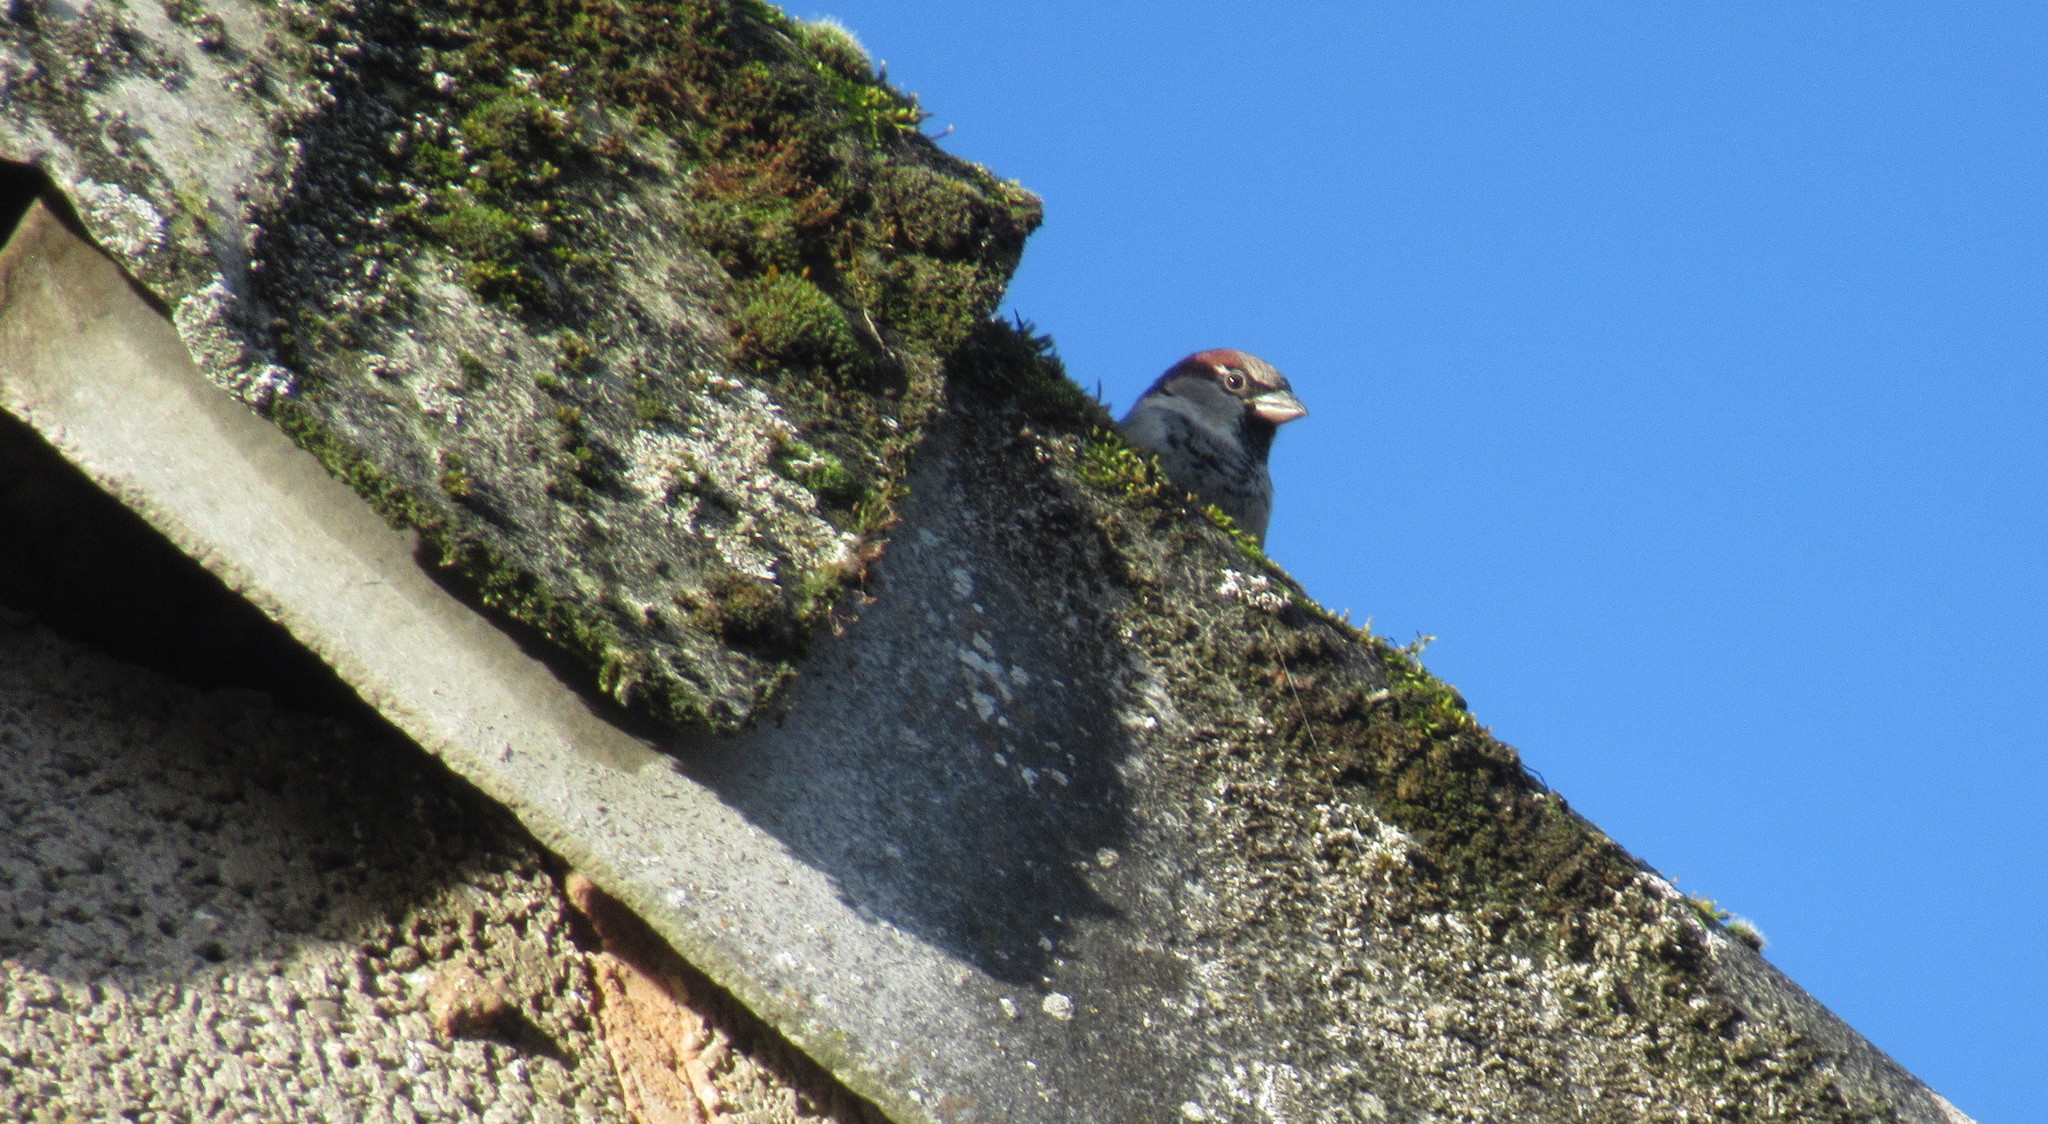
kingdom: Animalia
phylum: Chordata
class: Aves
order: Passeriformes
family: Passeridae
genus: Passer
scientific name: Passer domesticus
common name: House sparrow
